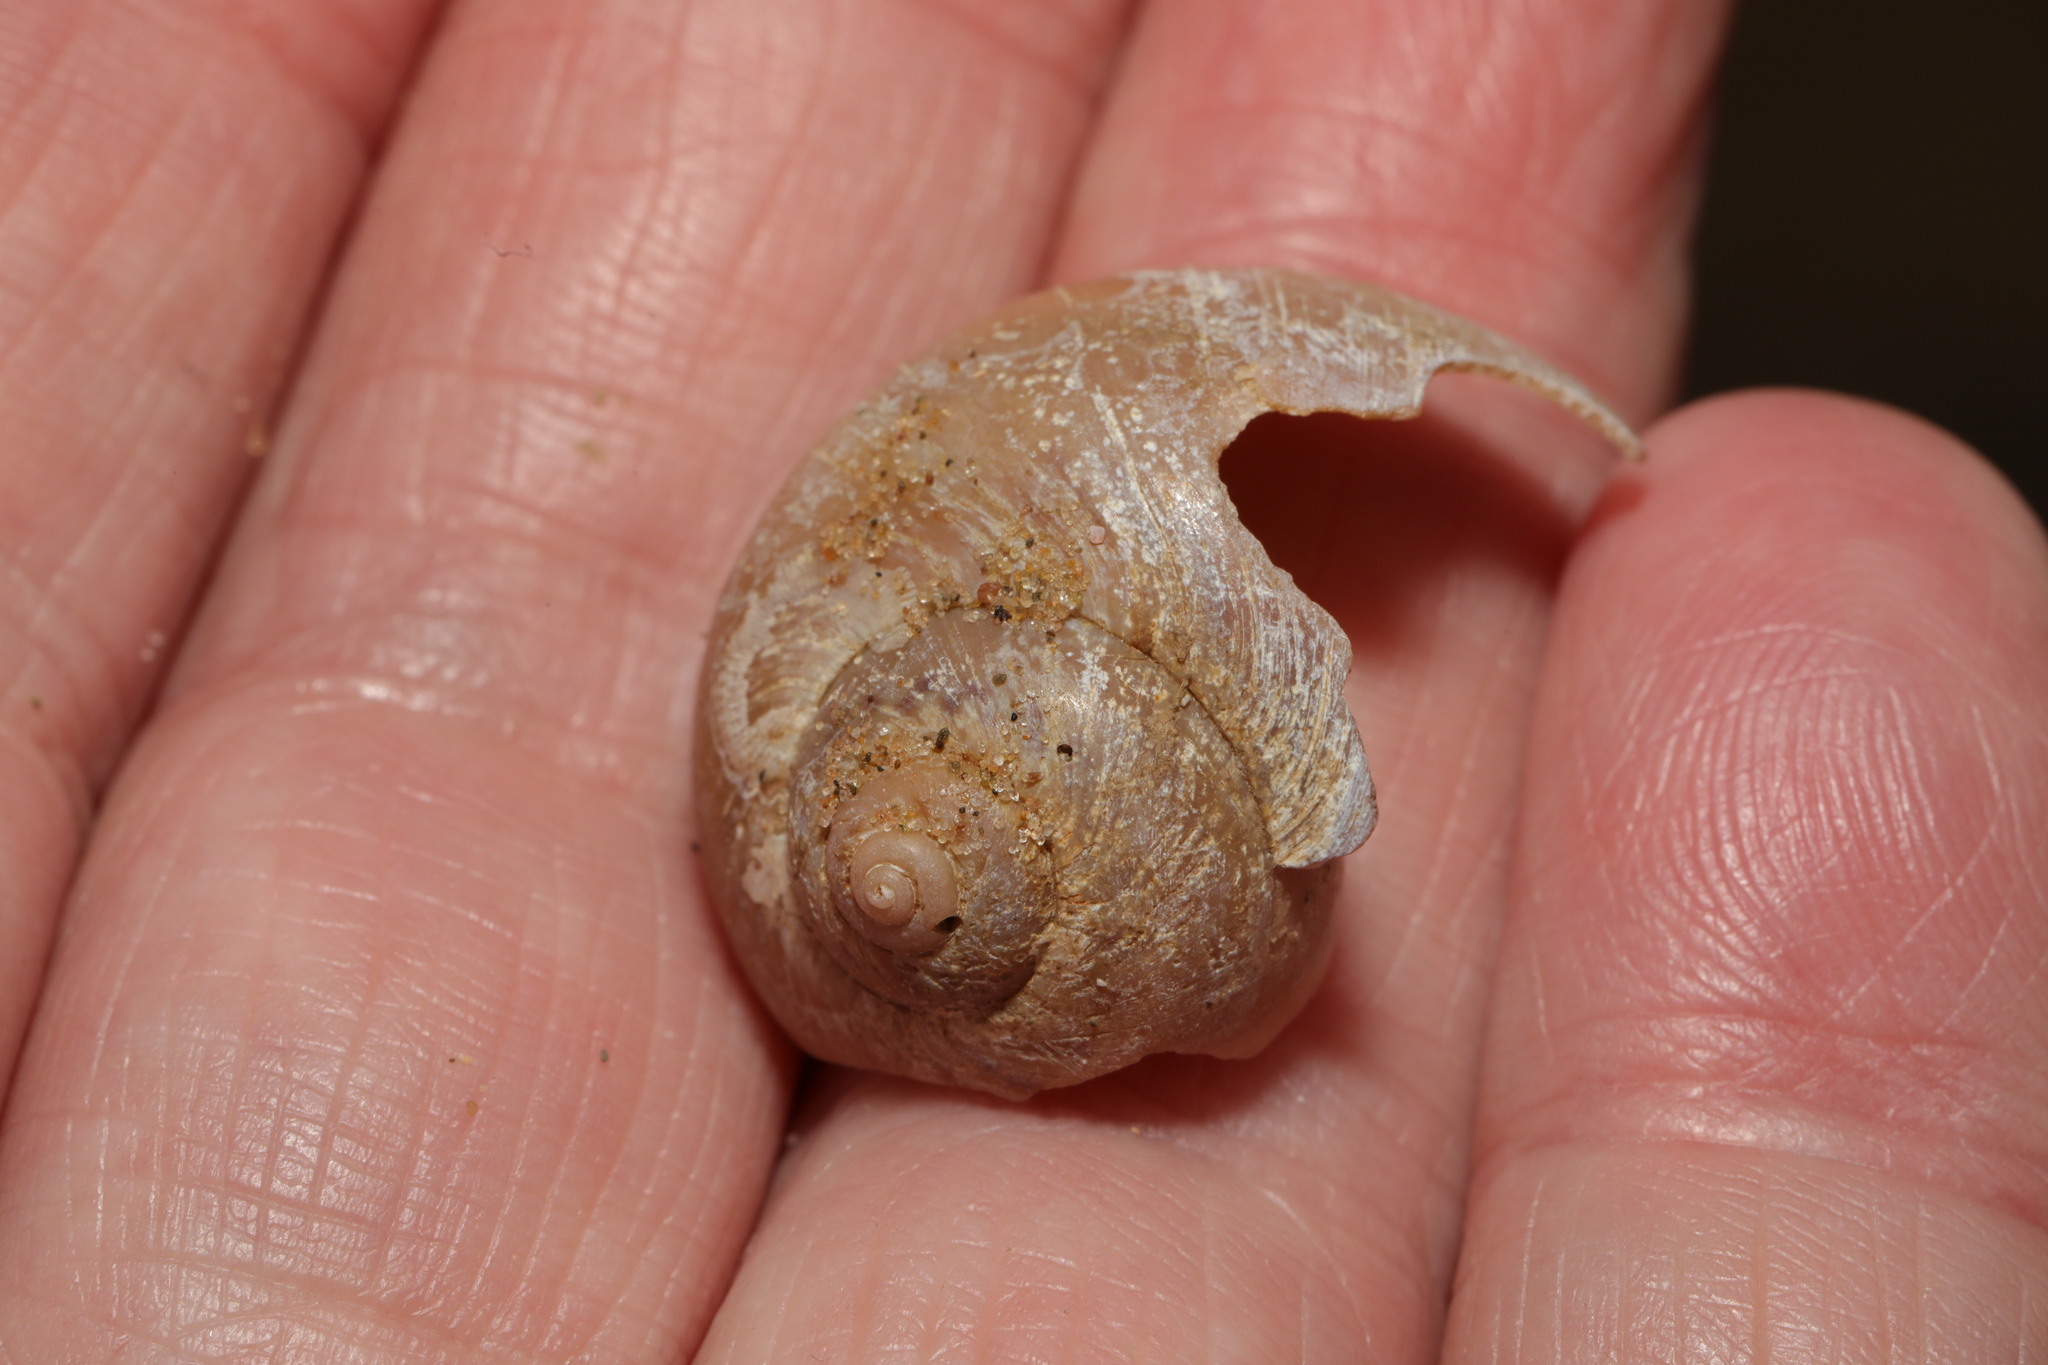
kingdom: Animalia
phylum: Mollusca
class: Gastropoda
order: Littorinimorpha
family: Naticidae
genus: Euspira
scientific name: Euspira catena
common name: Necklace shell
